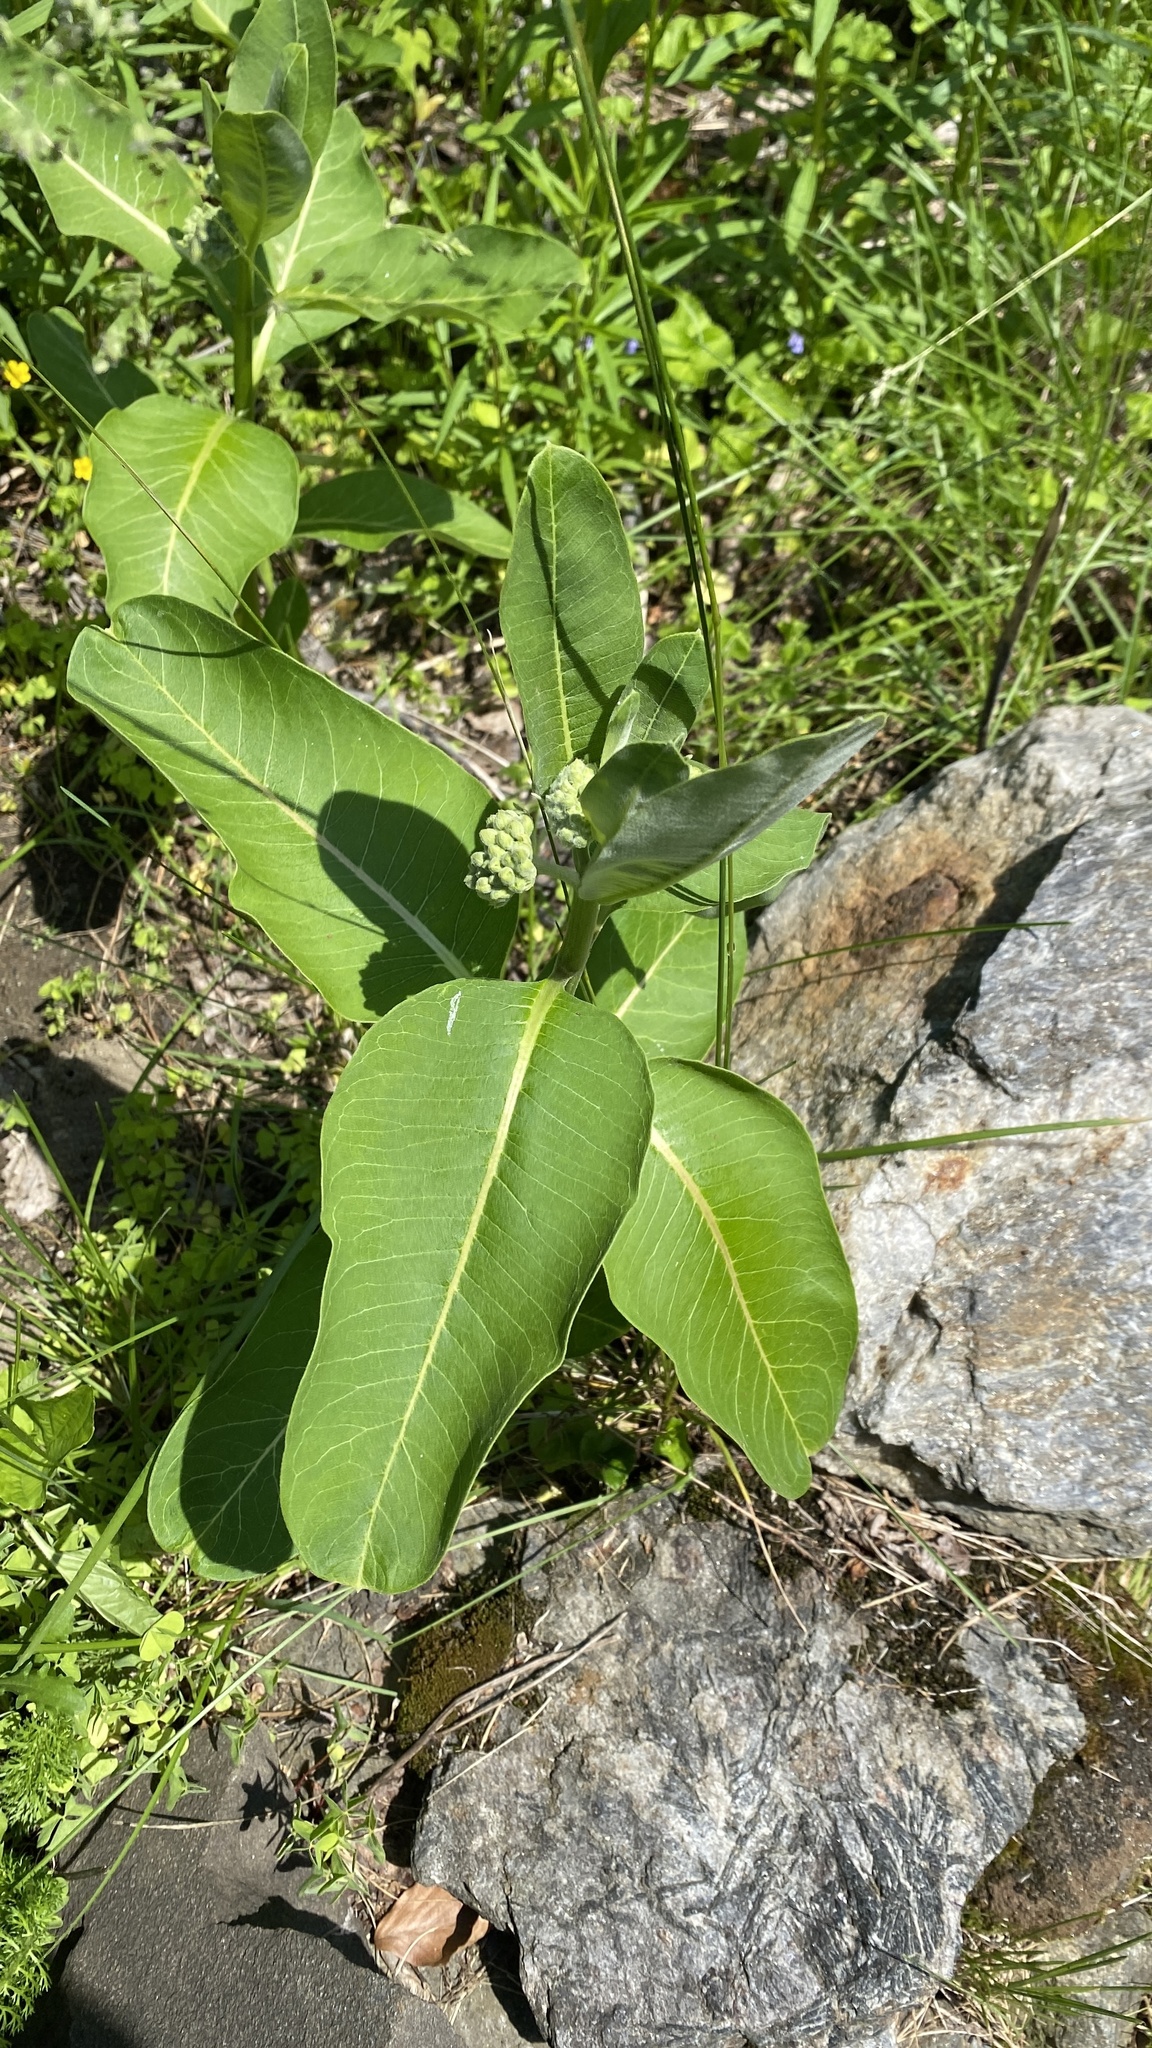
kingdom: Plantae
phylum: Tracheophyta
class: Magnoliopsida
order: Gentianales
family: Apocynaceae
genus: Asclepias
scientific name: Asclepias syriaca
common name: Common milkweed
